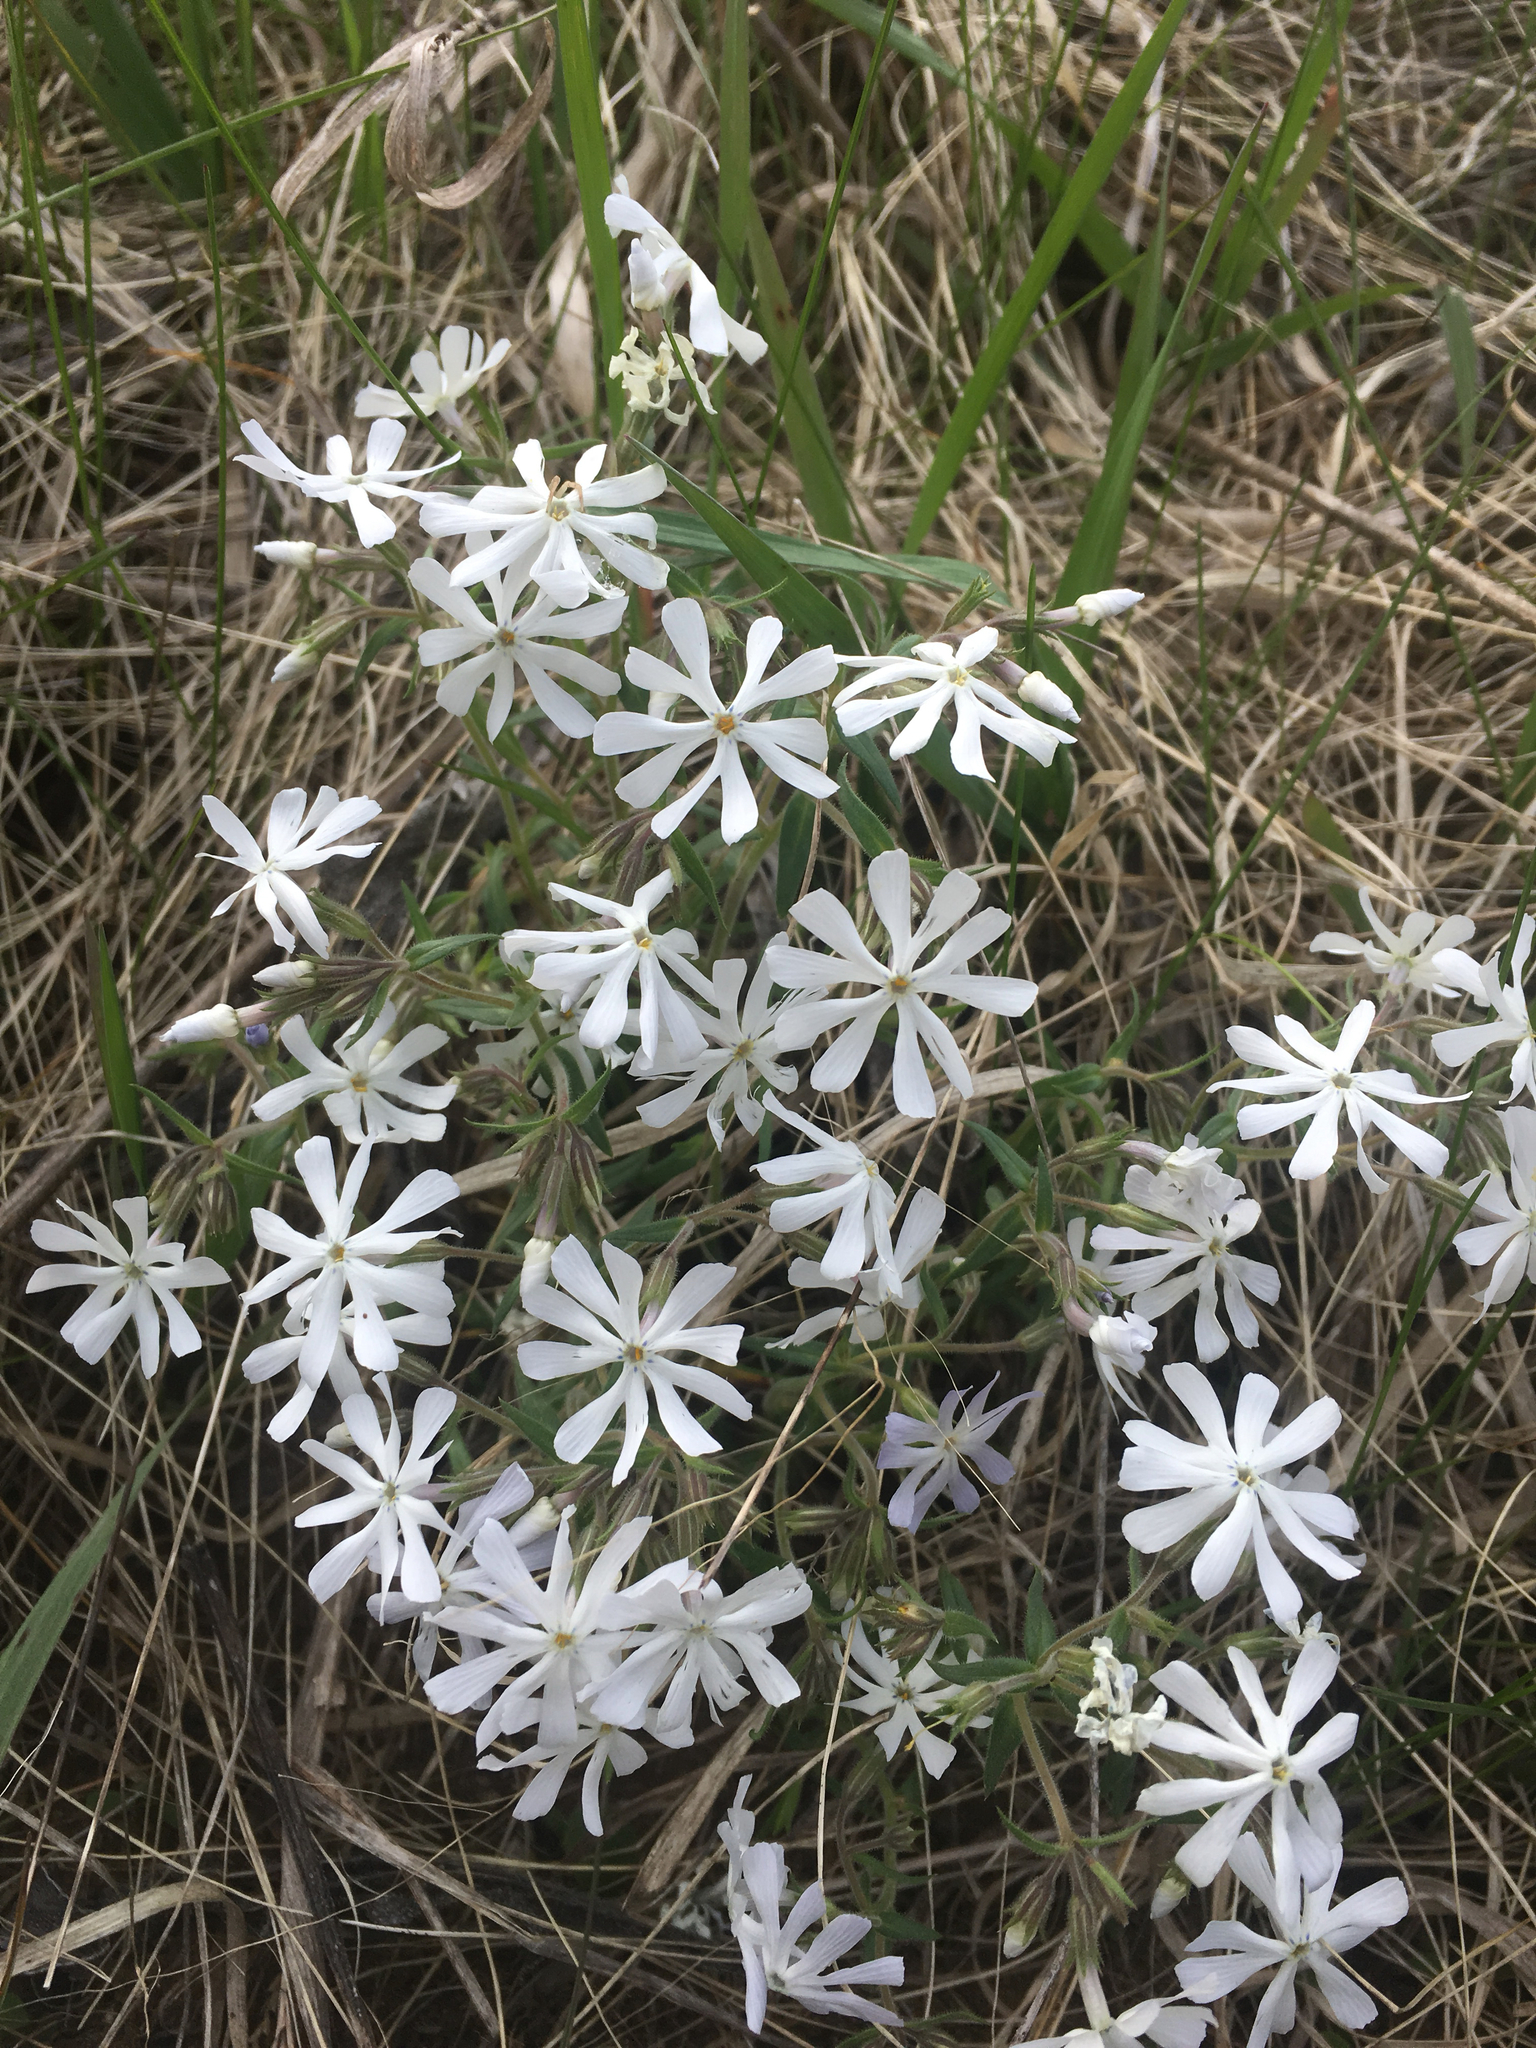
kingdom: Plantae
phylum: Tracheophyta
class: Magnoliopsida
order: Ericales
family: Polemoniaceae
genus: Phlox
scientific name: Phlox bifida
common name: Sand phlox
